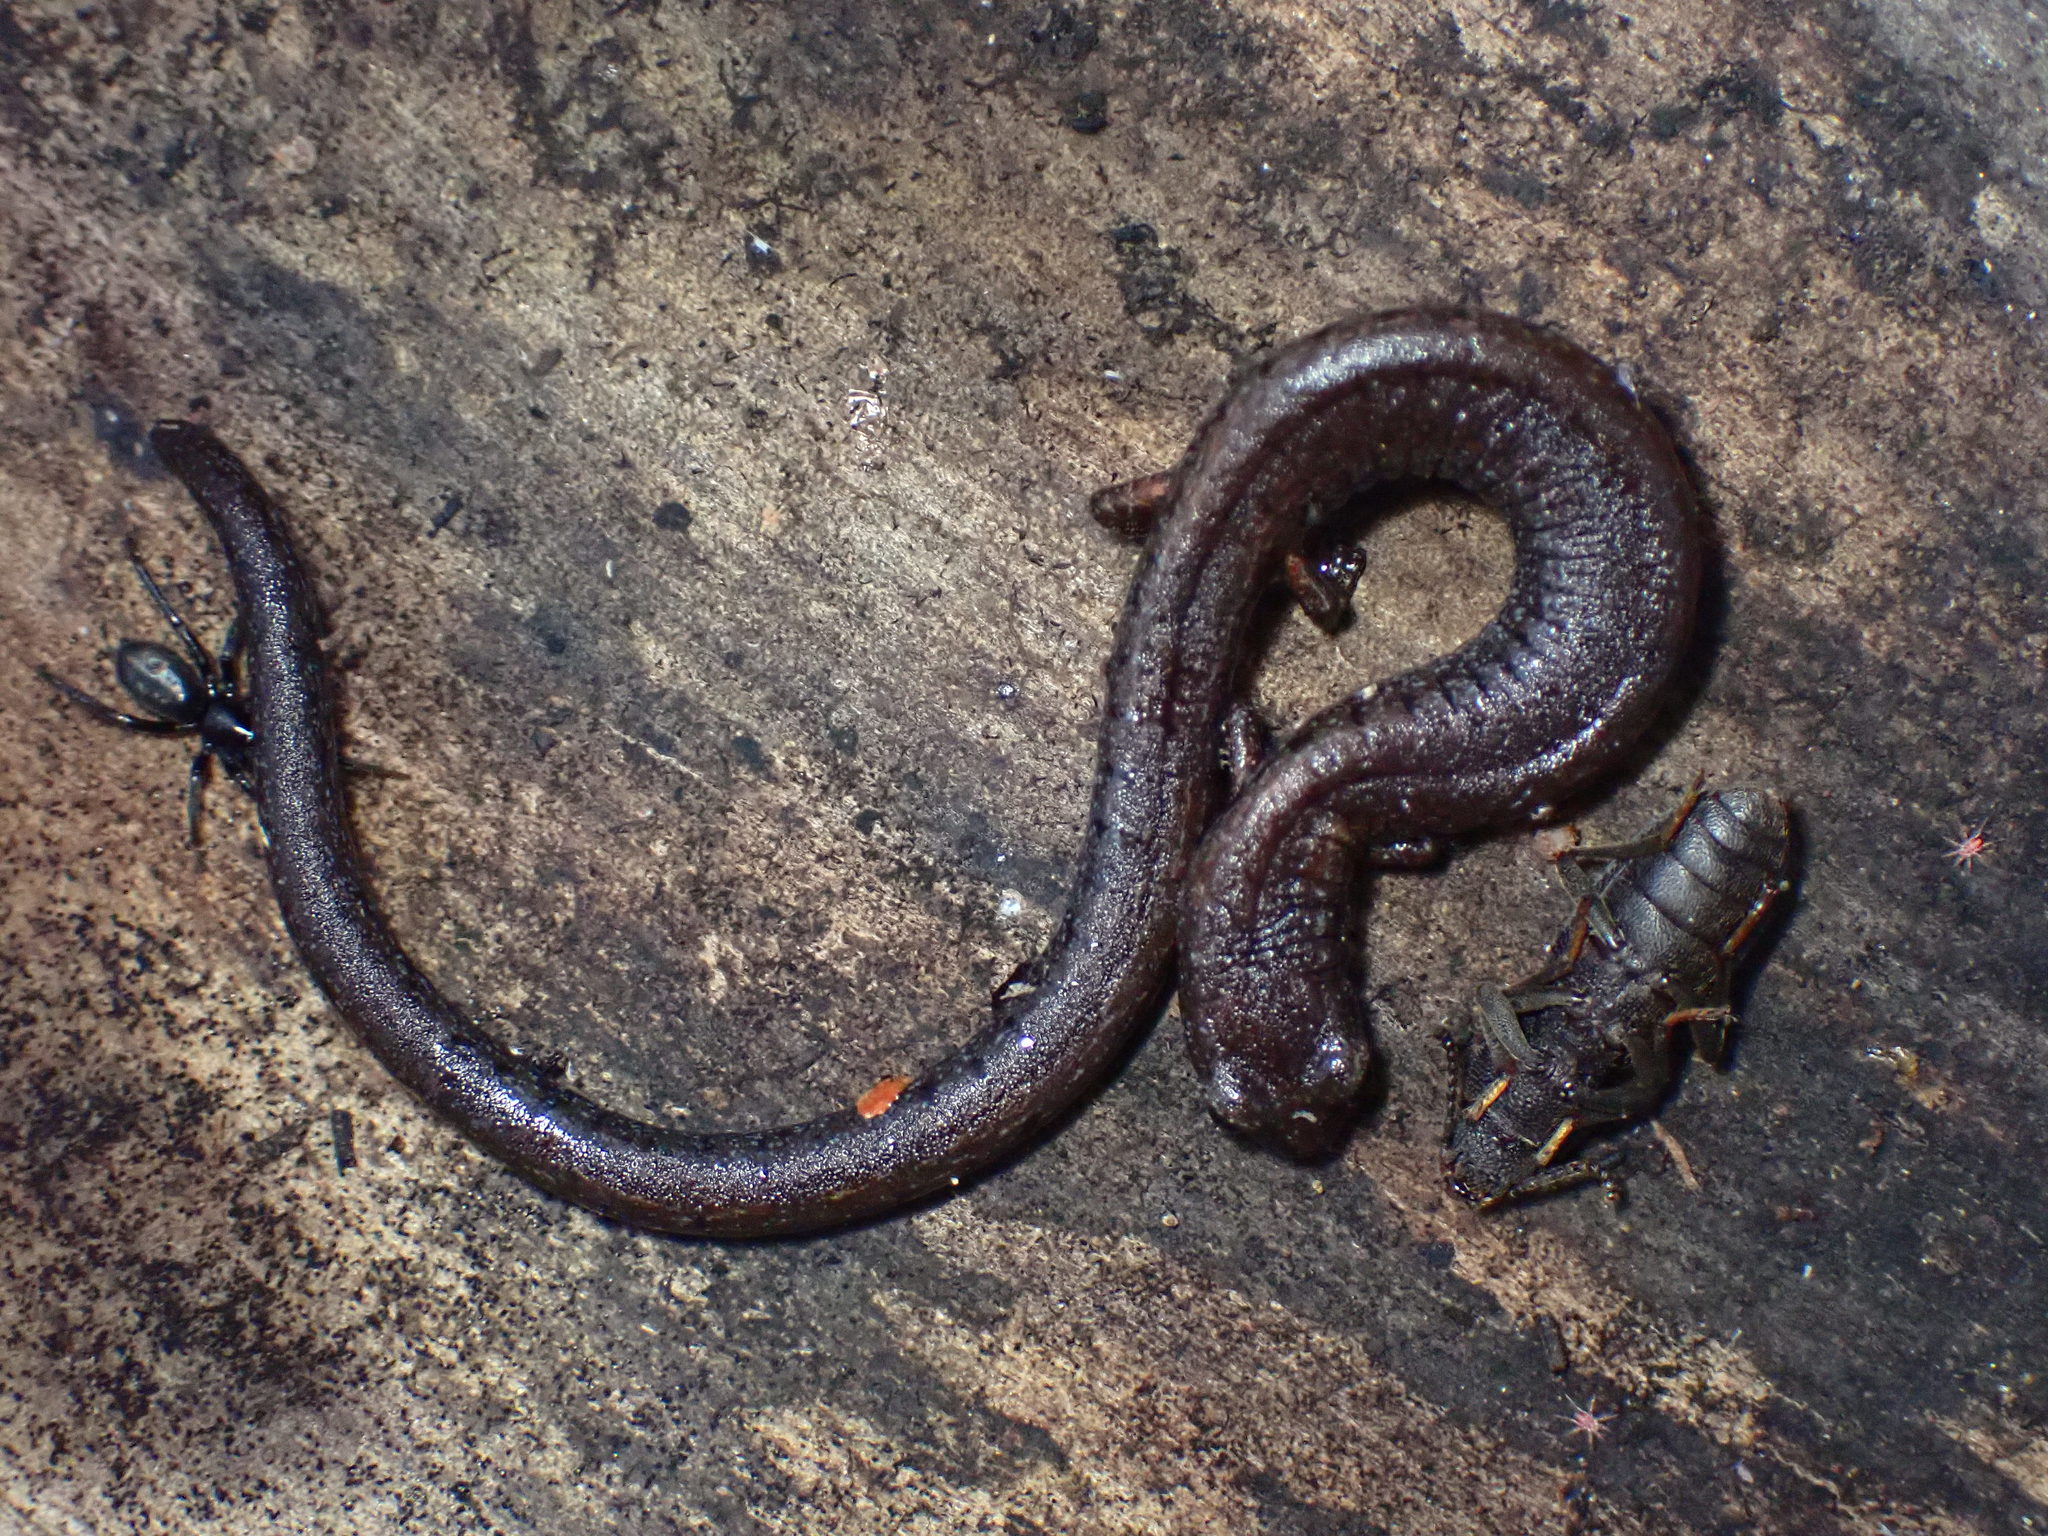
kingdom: Animalia
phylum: Chordata
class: Amphibia
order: Caudata
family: Plethodontidae
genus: Batrachoseps
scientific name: Batrachoseps attenuatus
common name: California slender salamander
